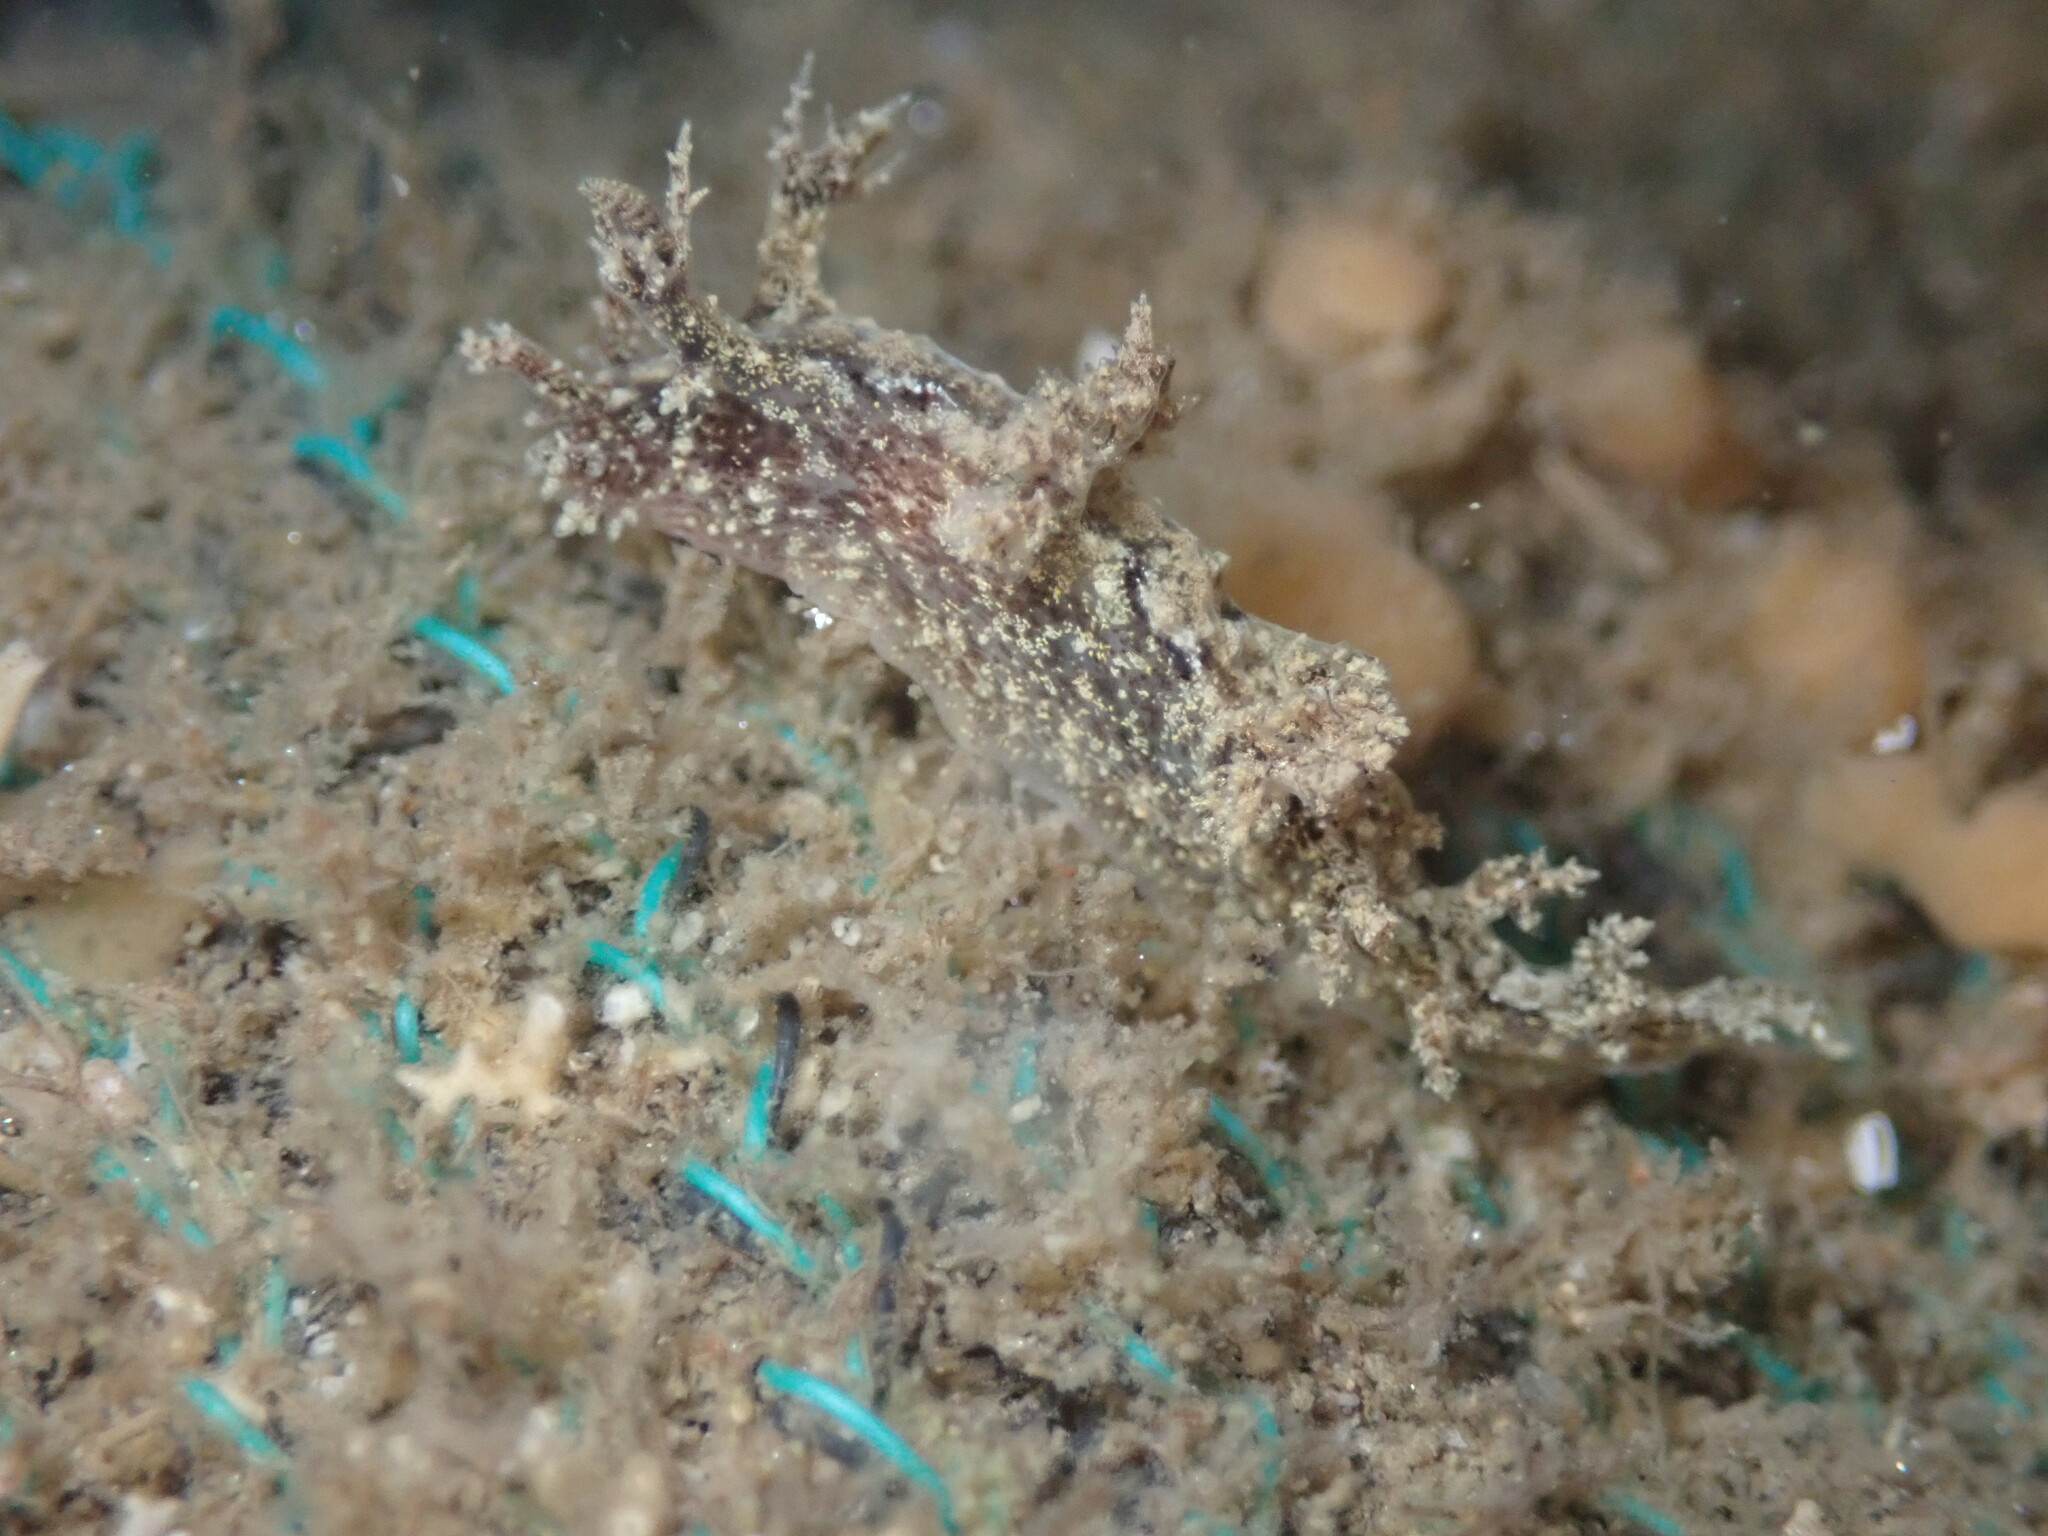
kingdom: Animalia
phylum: Mollusca
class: Gastropoda
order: Nudibranchia
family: Dendronotidae
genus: Dendronotus
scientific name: Dendronotus venustus
